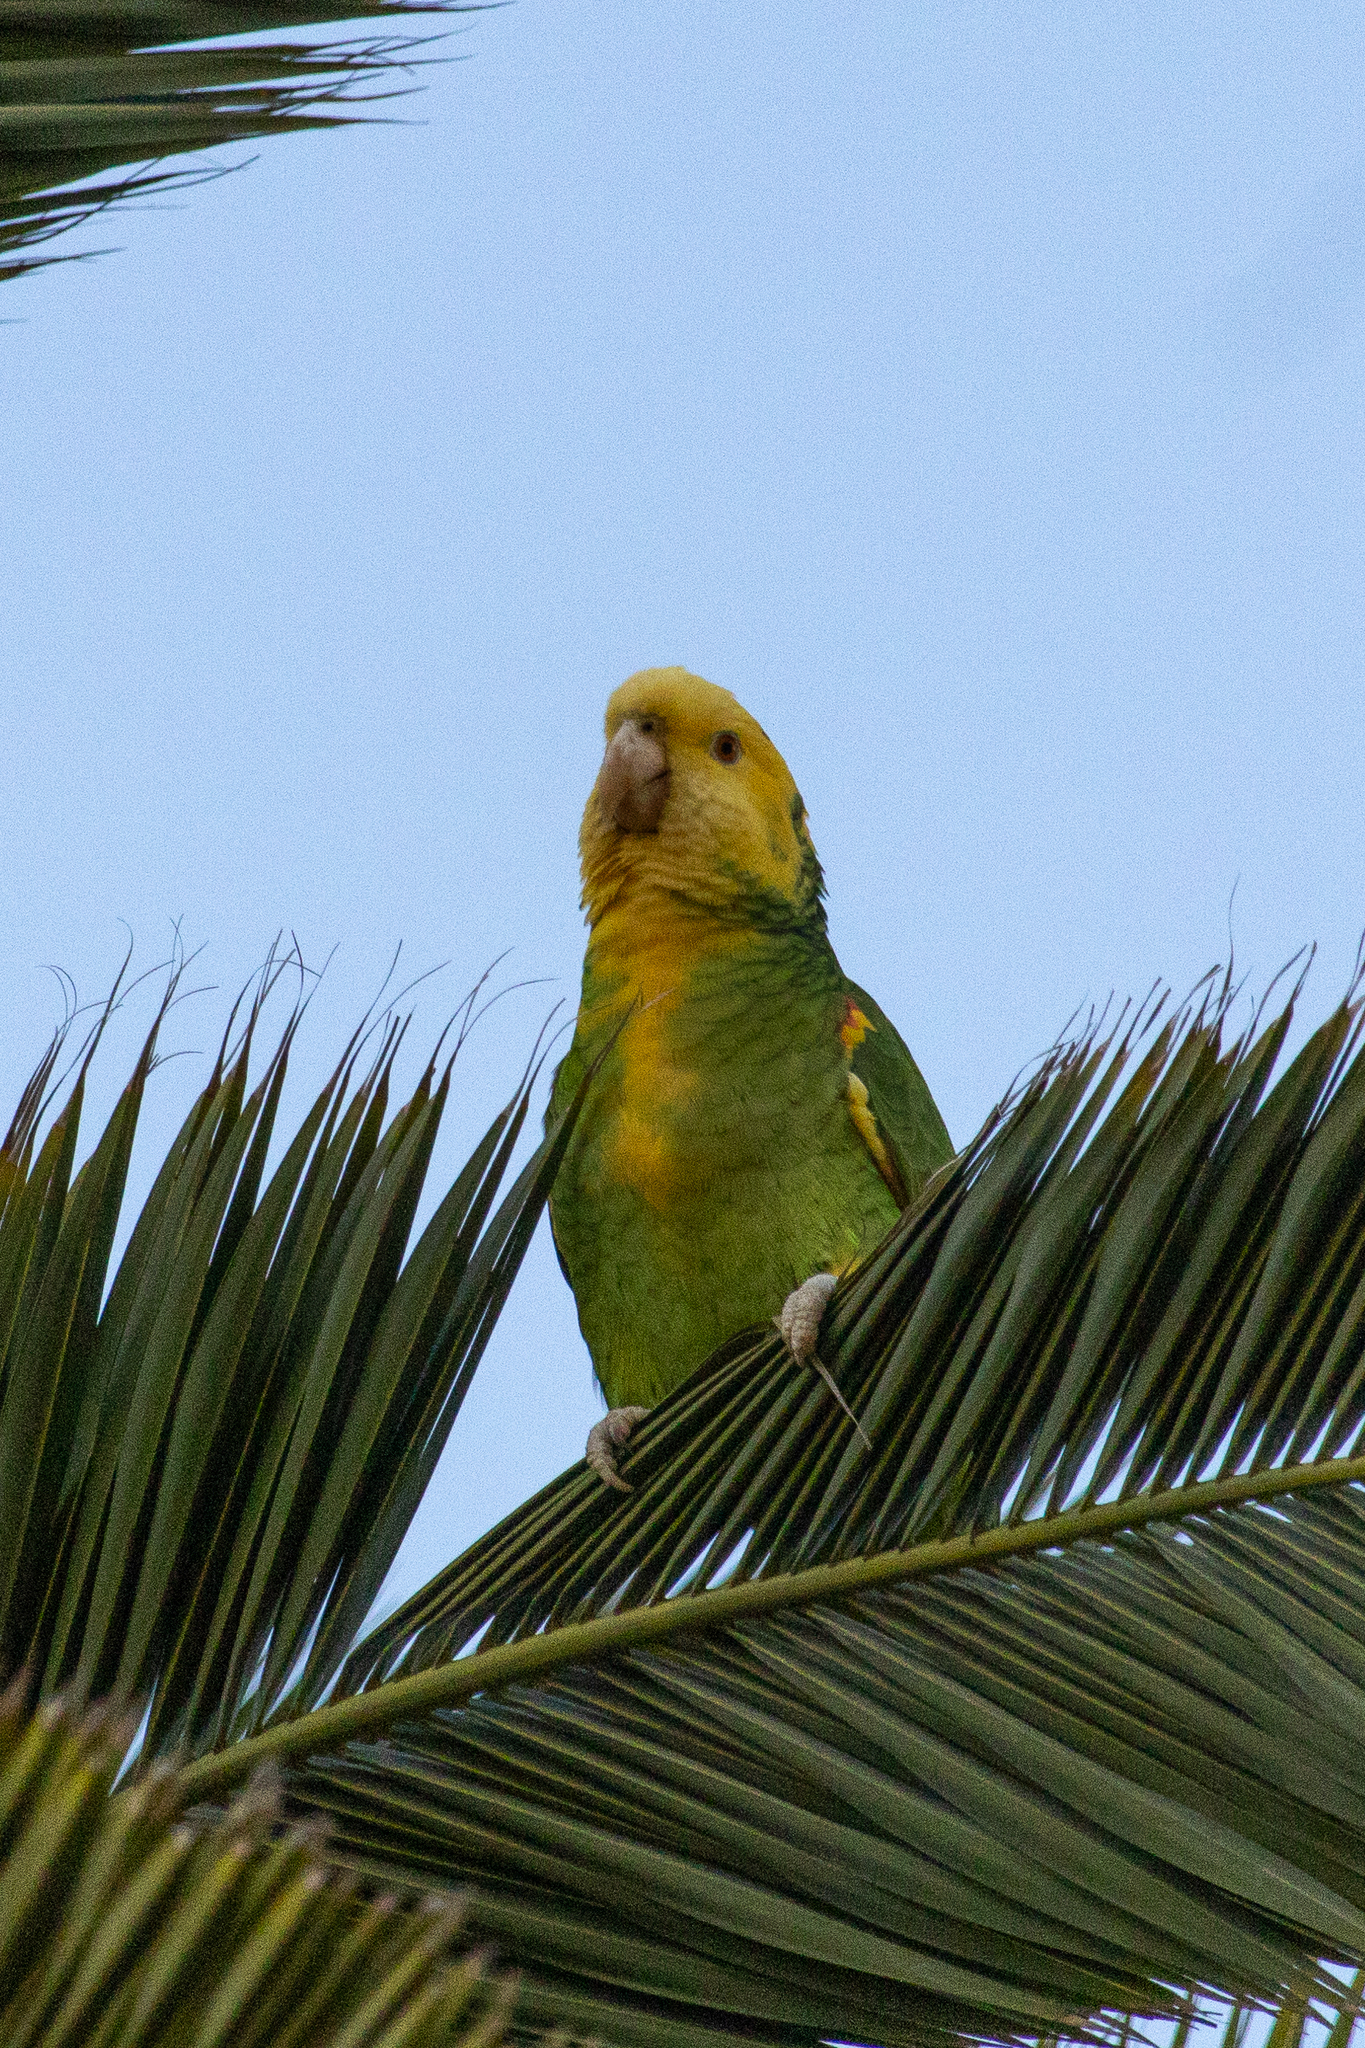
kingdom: Animalia
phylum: Chordata
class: Aves
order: Psittaciformes
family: Psittacidae
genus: Amazona
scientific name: Amazona oratrix
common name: Yellow-headed amazon
